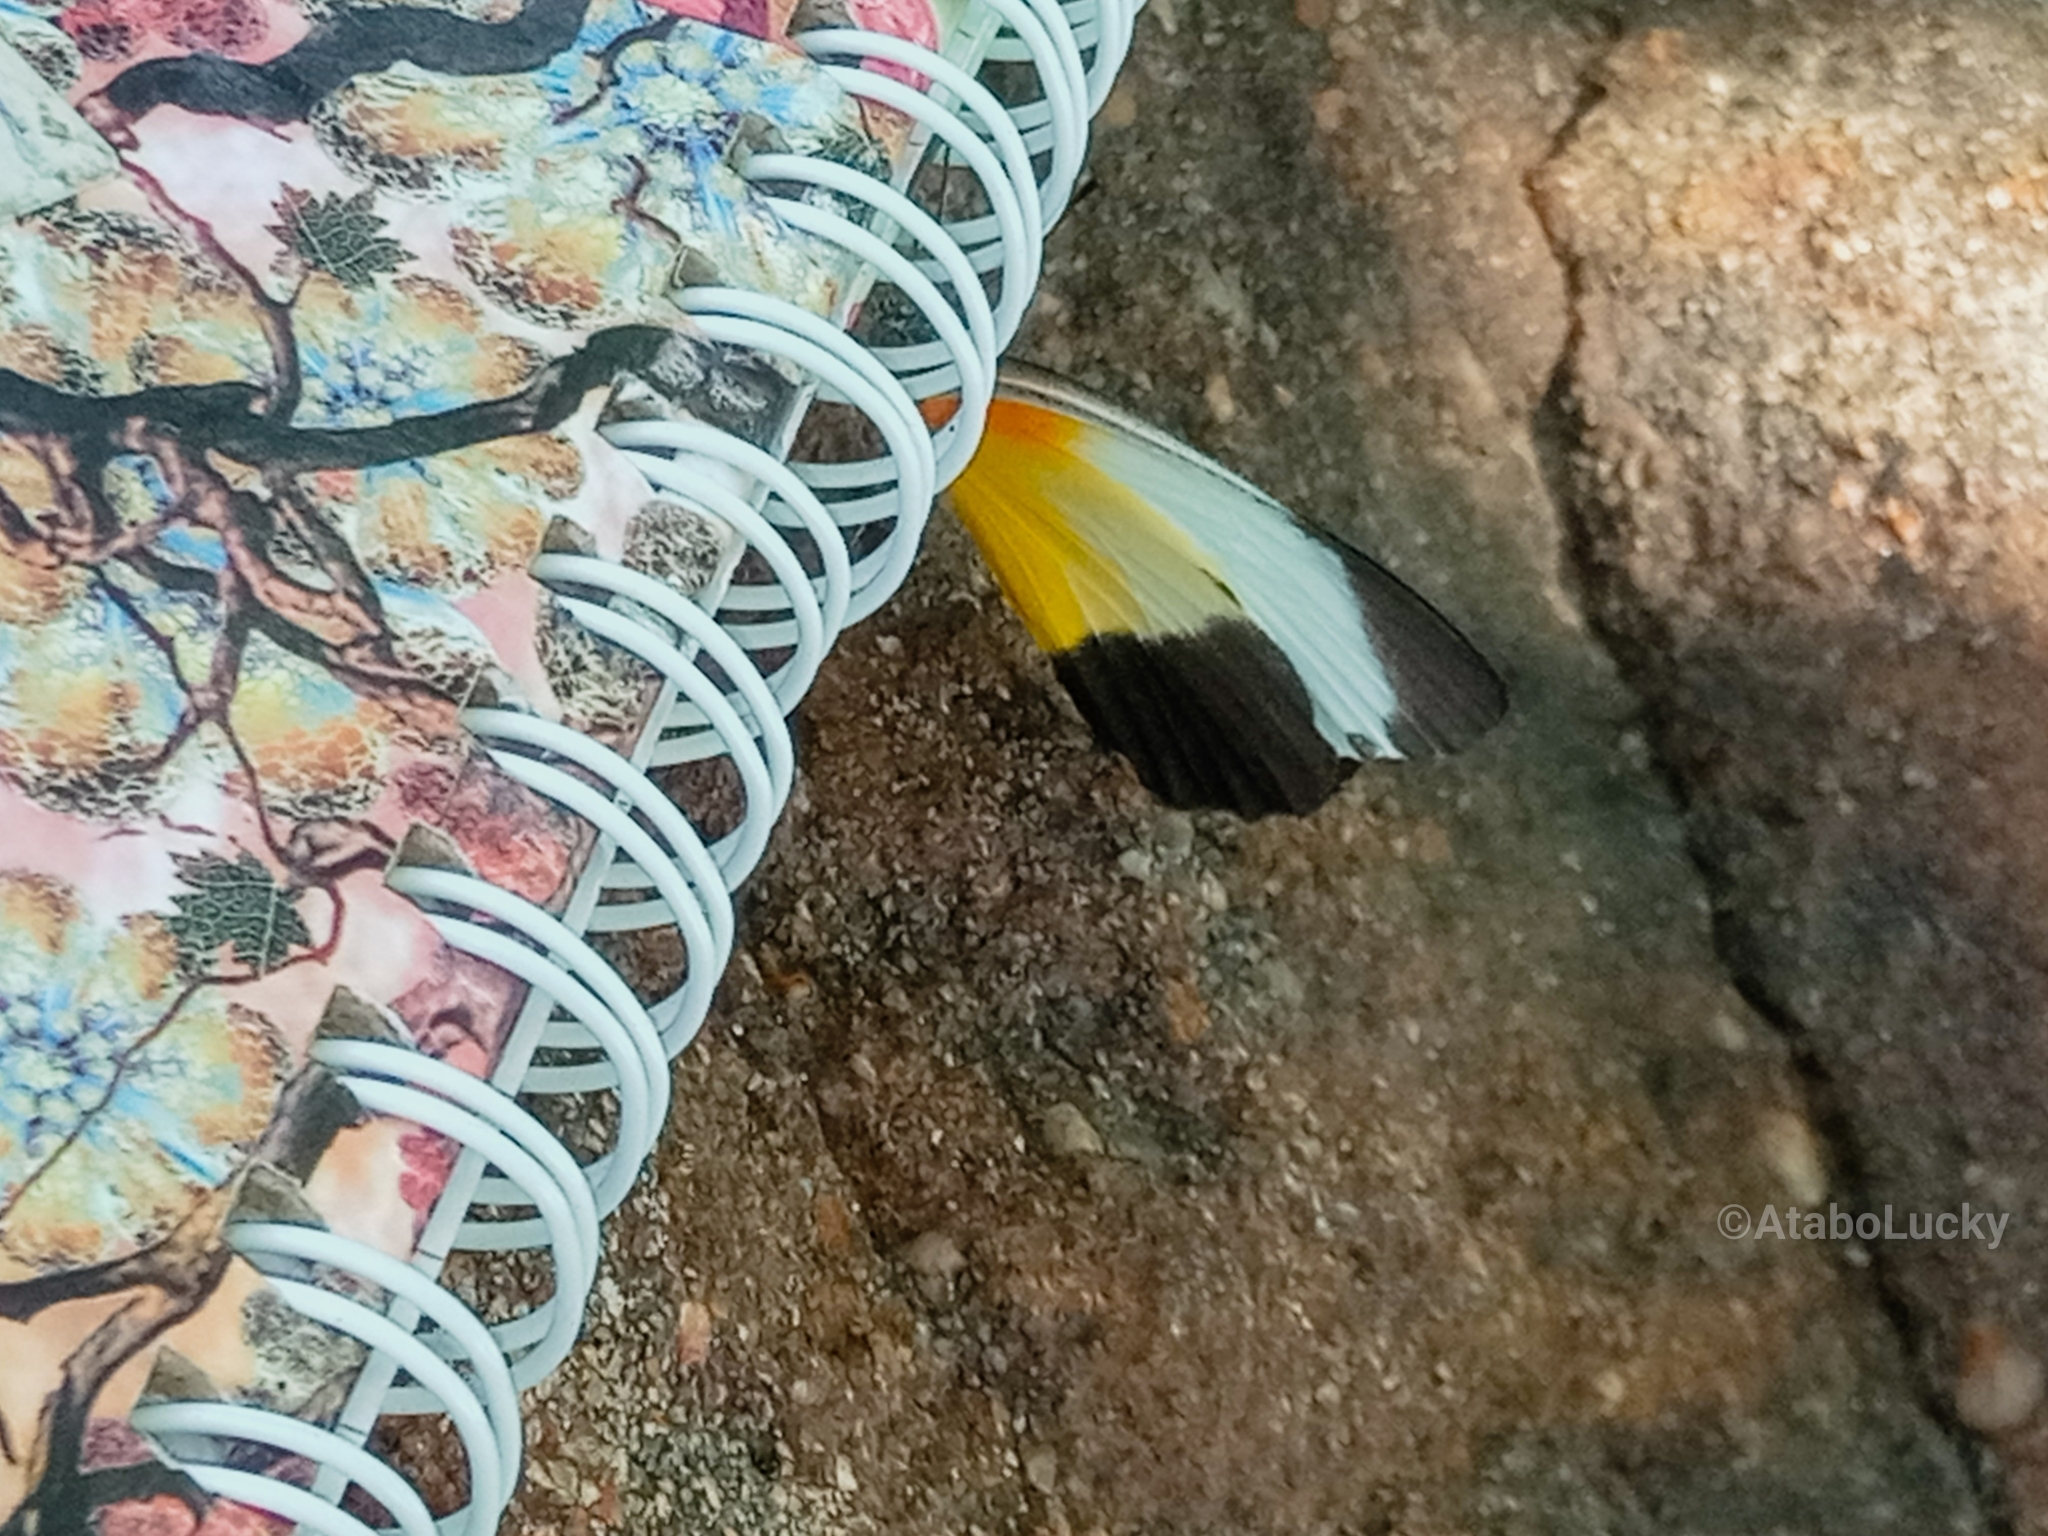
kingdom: Animalia
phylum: Arthropoda
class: Insecta
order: Lepidoptera
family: Pieridae
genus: Mylothris
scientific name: Mylothris chloris
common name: Western dotted border
